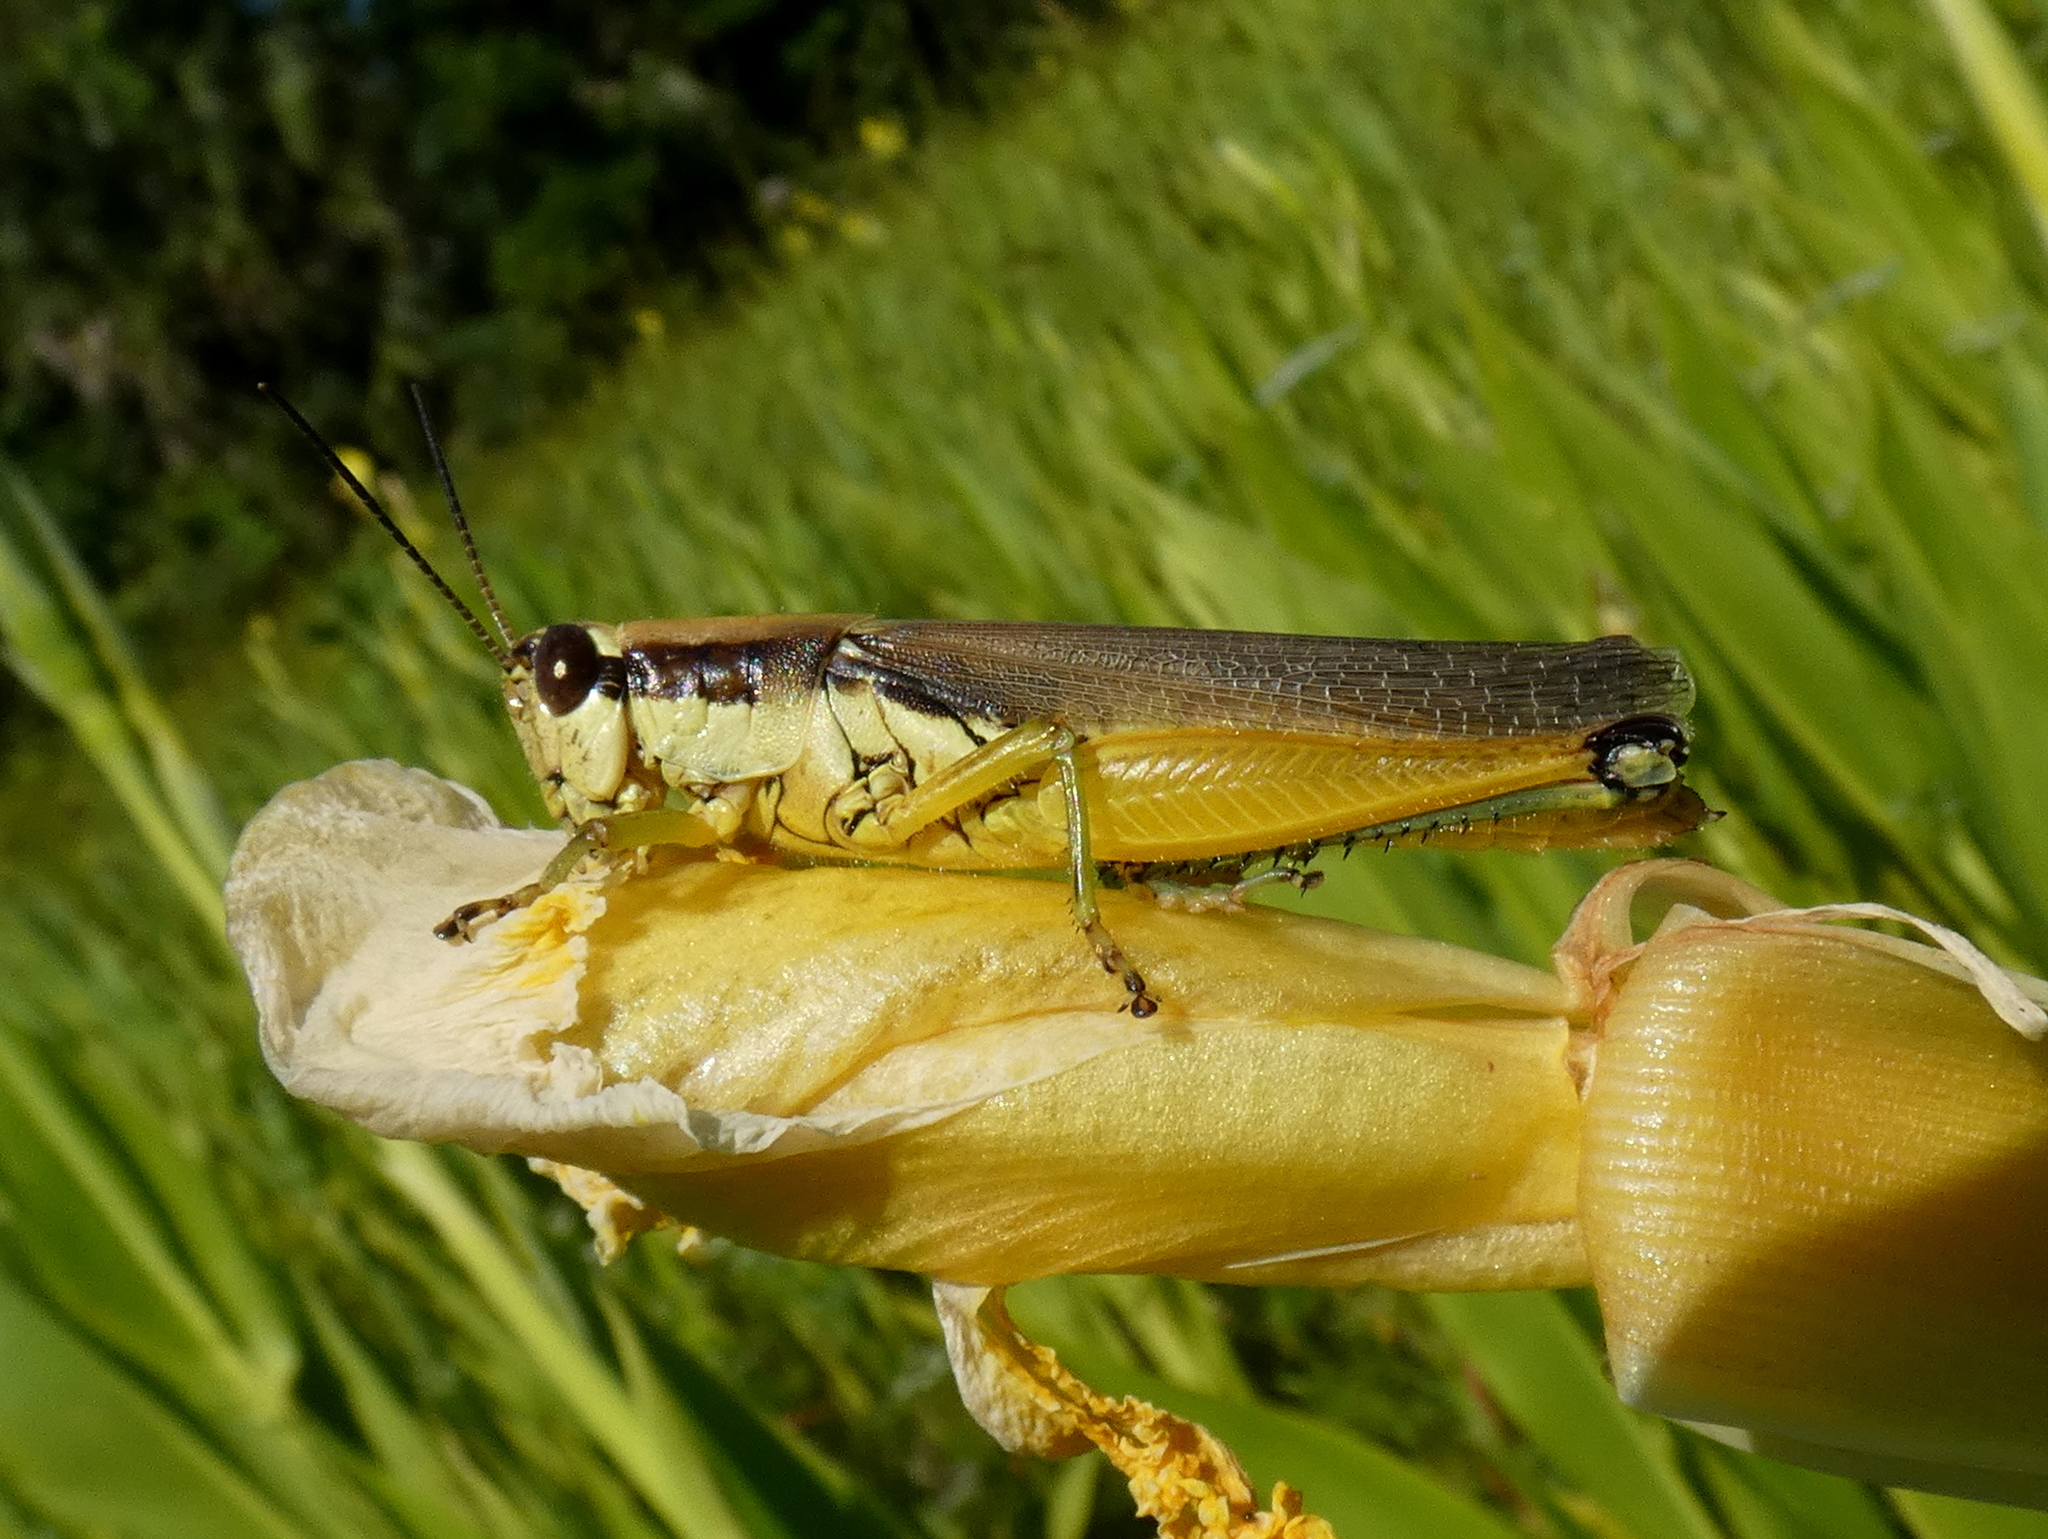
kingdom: Animalia
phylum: Arthropoda
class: Insecta
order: Orthoptera
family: Acrididae
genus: Paroxya
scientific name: Paroxya clavuligera
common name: Olive-green swamp grasshopper
